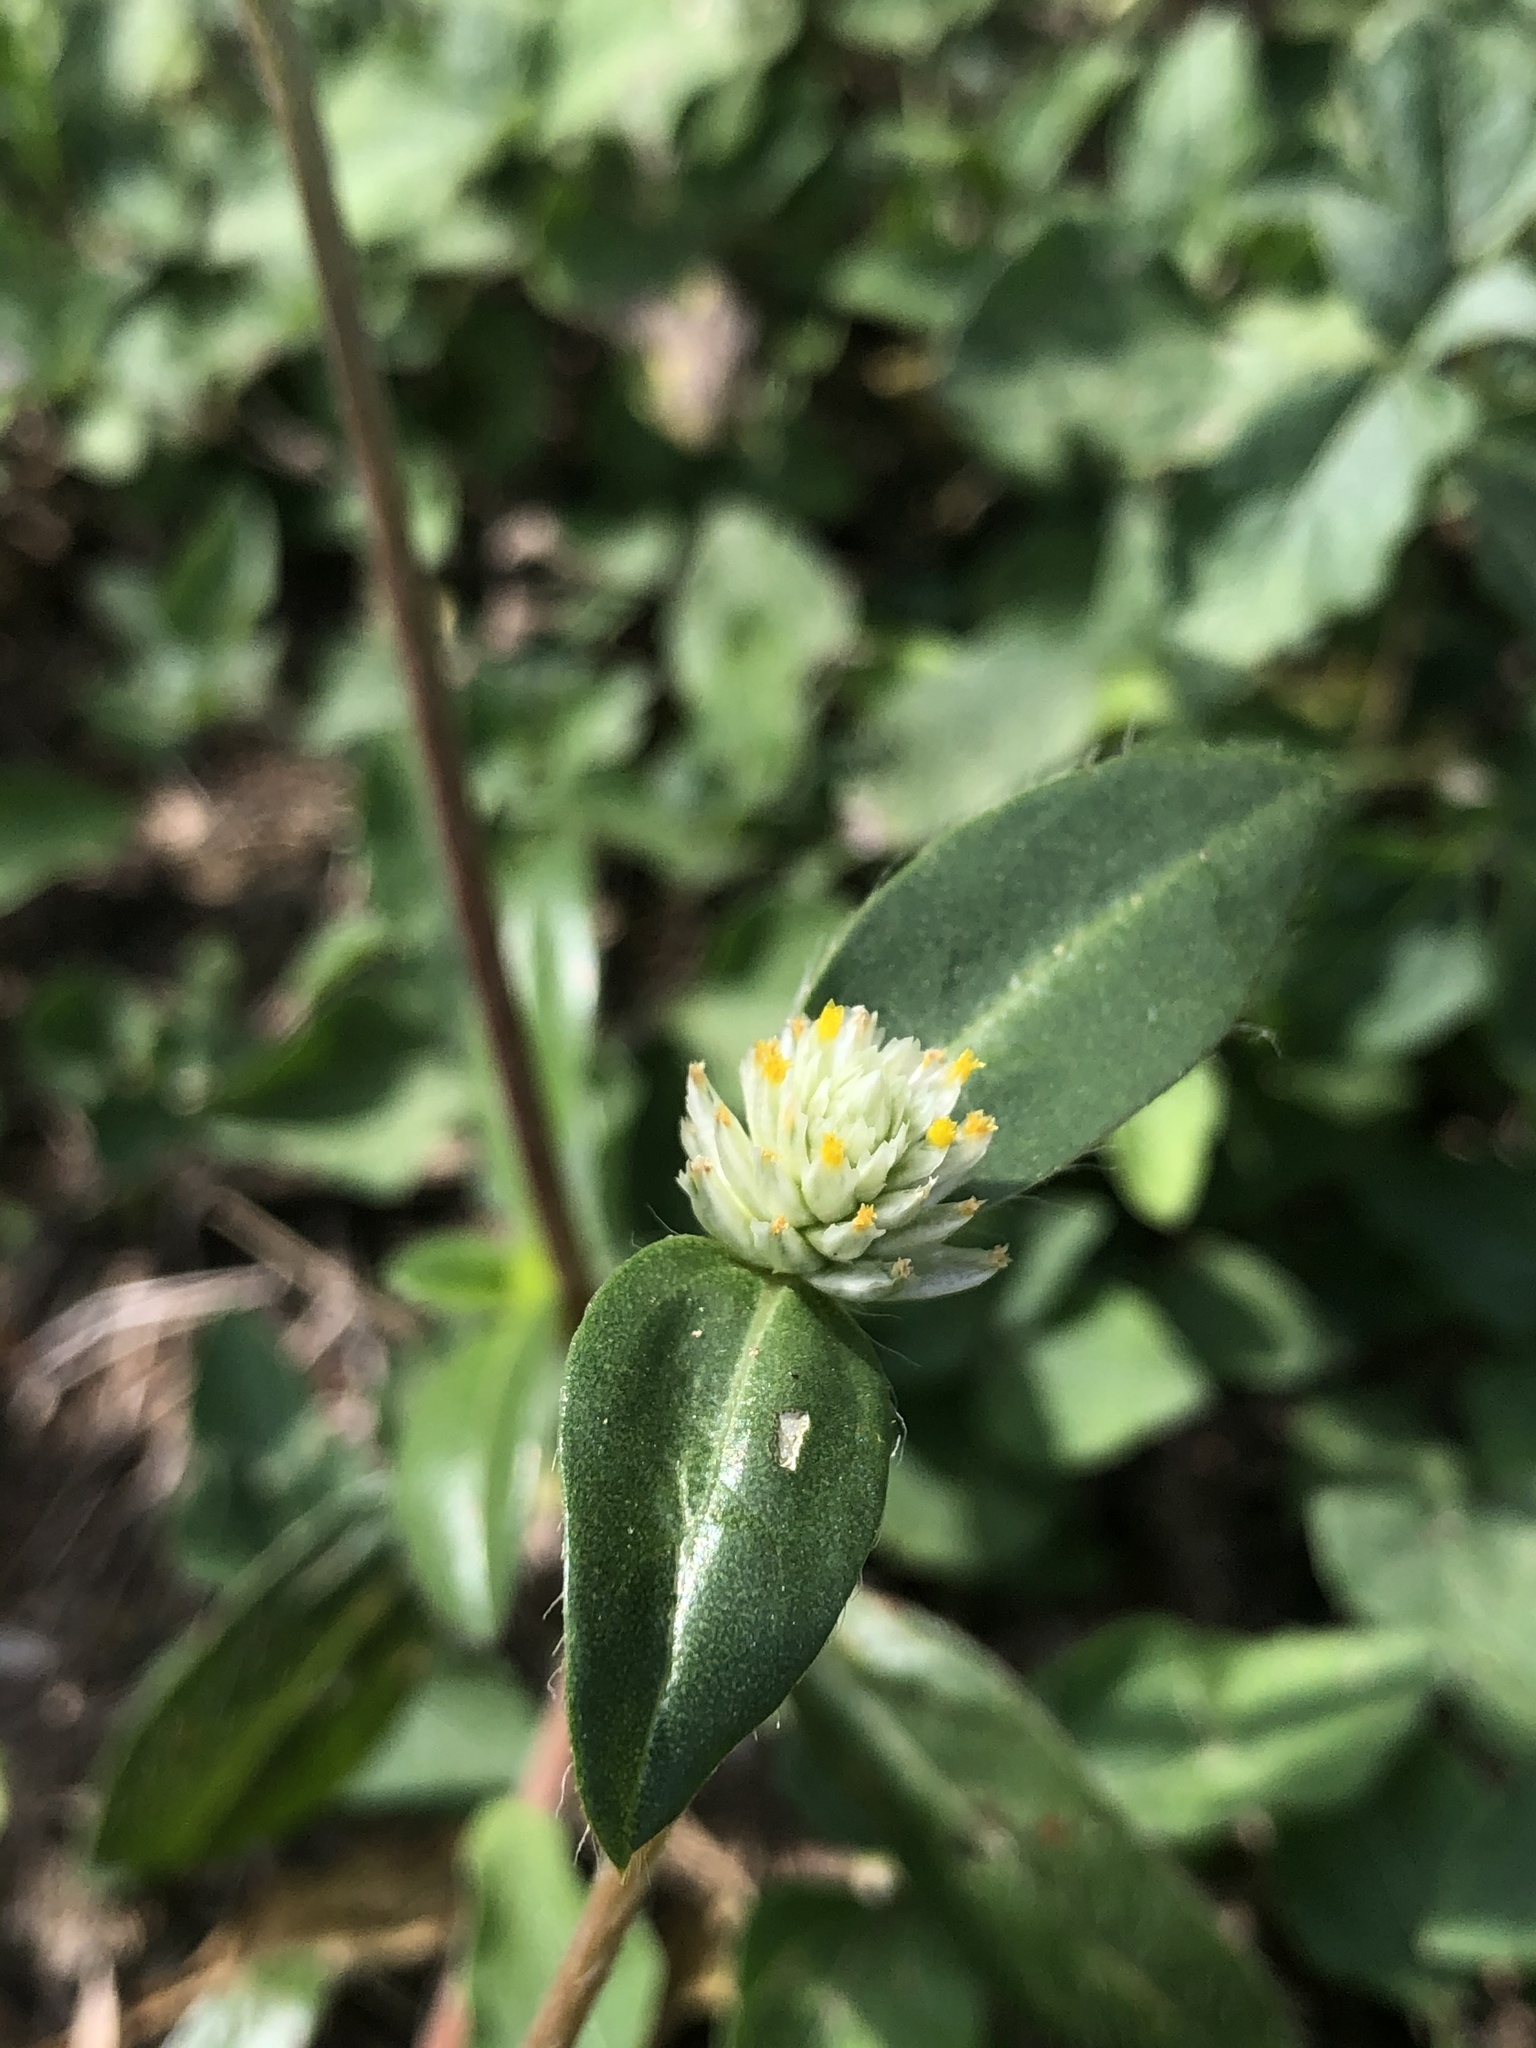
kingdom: Plantae
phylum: Tracheophyta
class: Magnoliopsida
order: Caryophyllales
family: Amaranthaceae
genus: Gomphrena
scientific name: Gomphrena serrata
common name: Arrasa con todo
